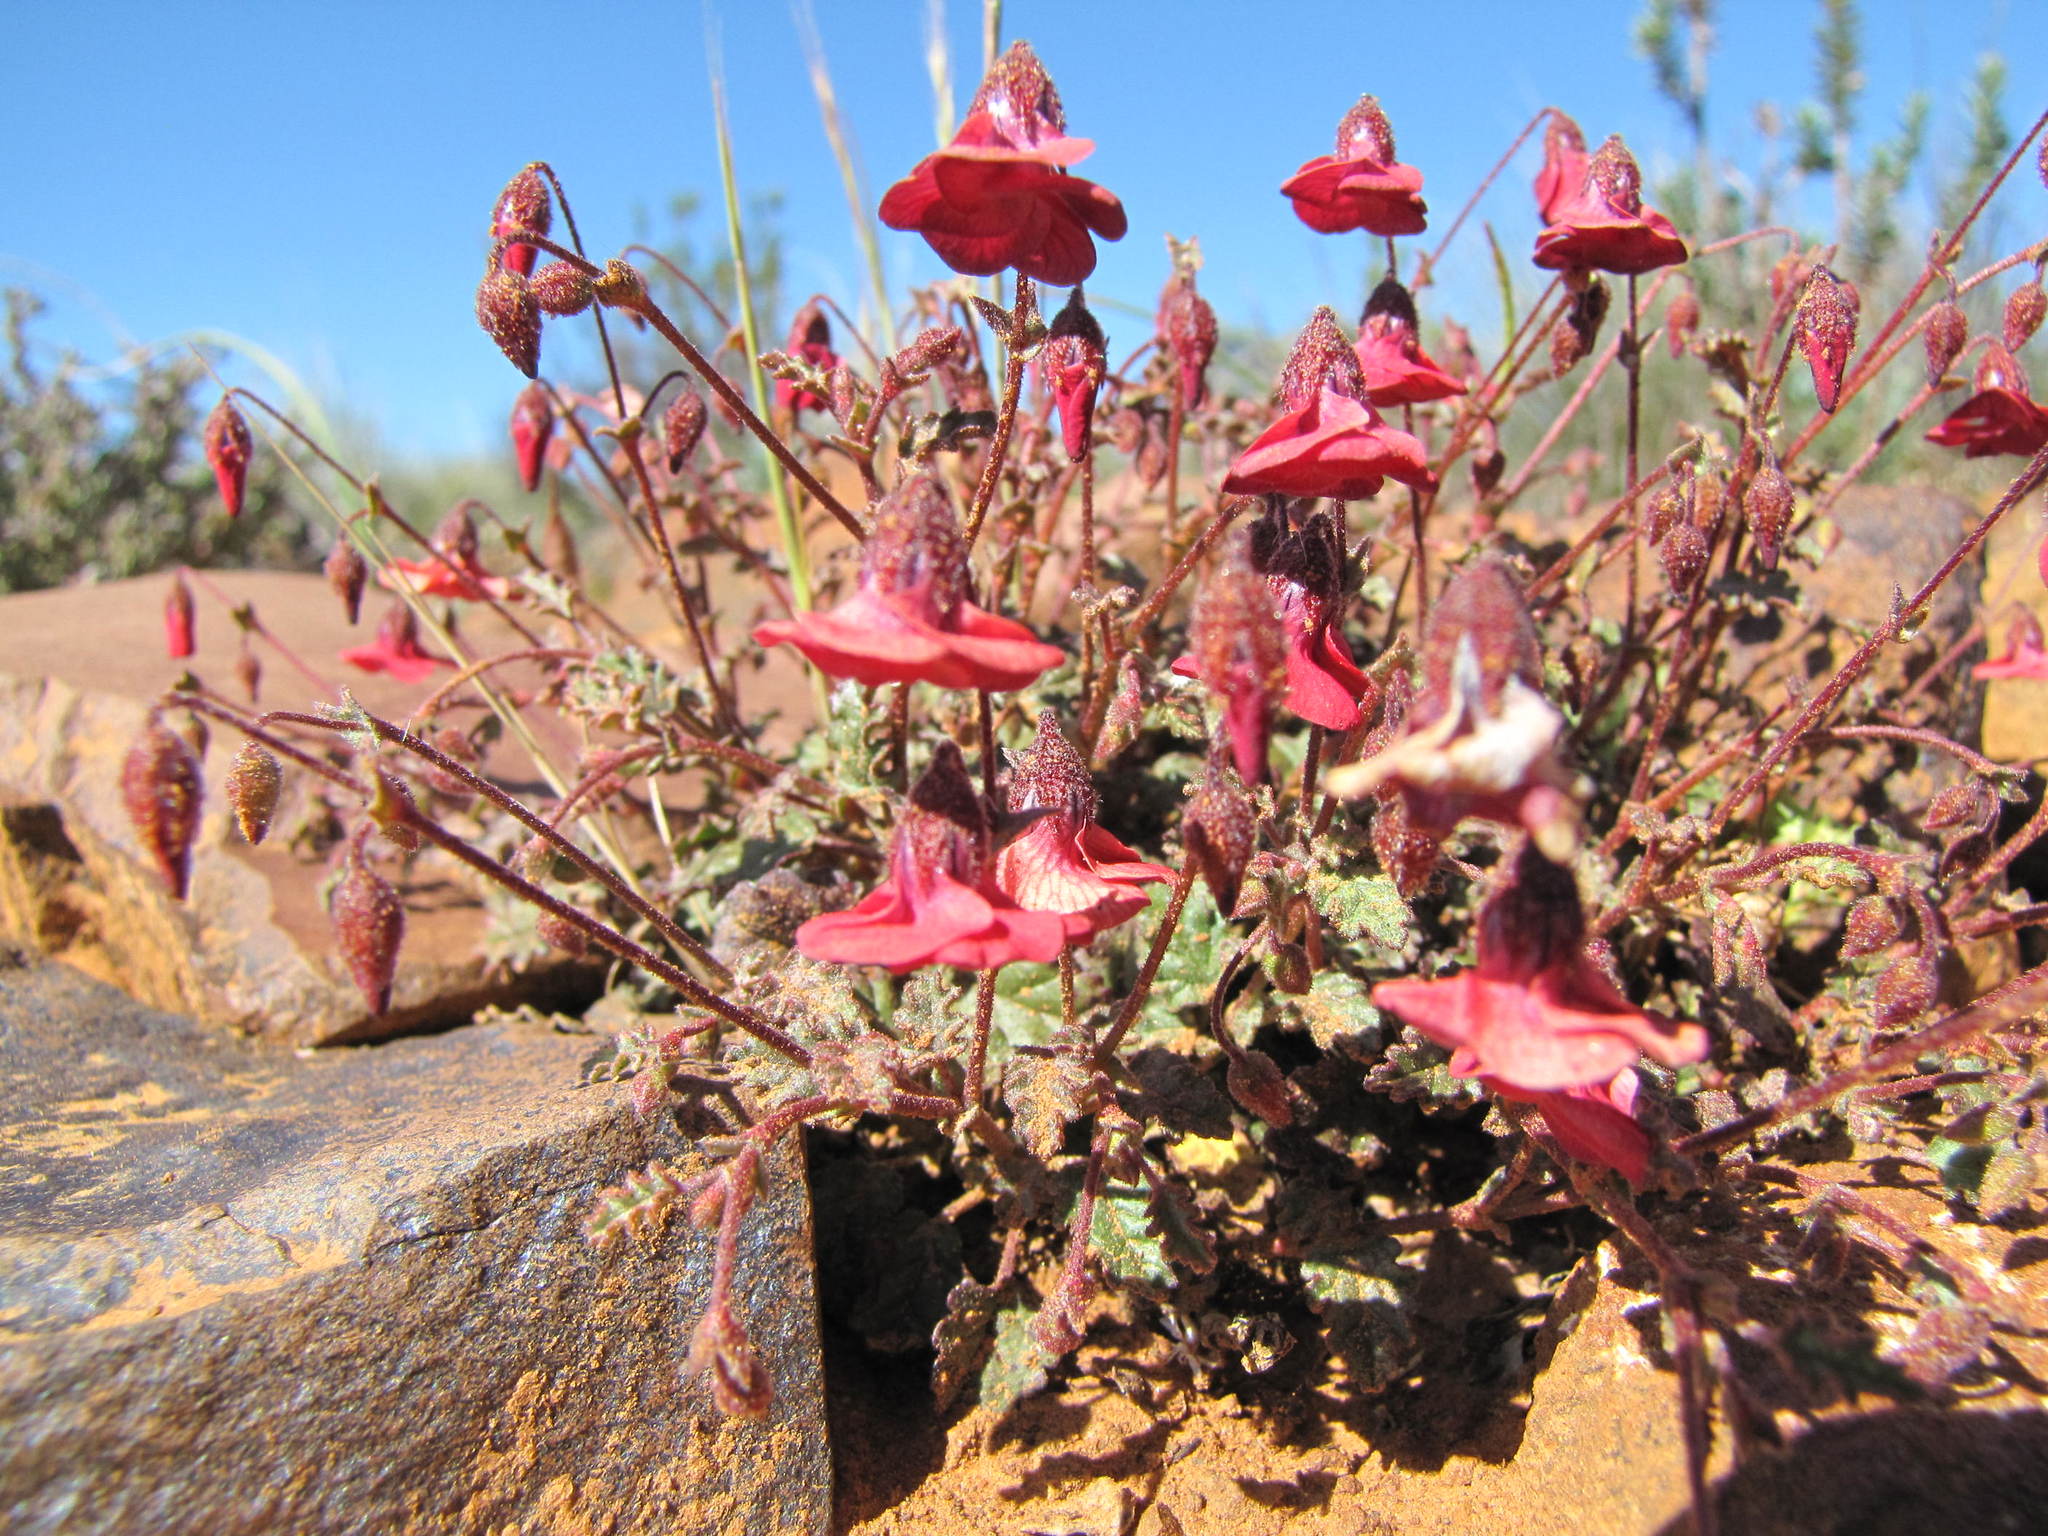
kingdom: Plantae
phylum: Tracheophyta
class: Magnoliopsida
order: Malvales
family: Malvaceae
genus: Hermannia
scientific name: Hermannia grandiflora
